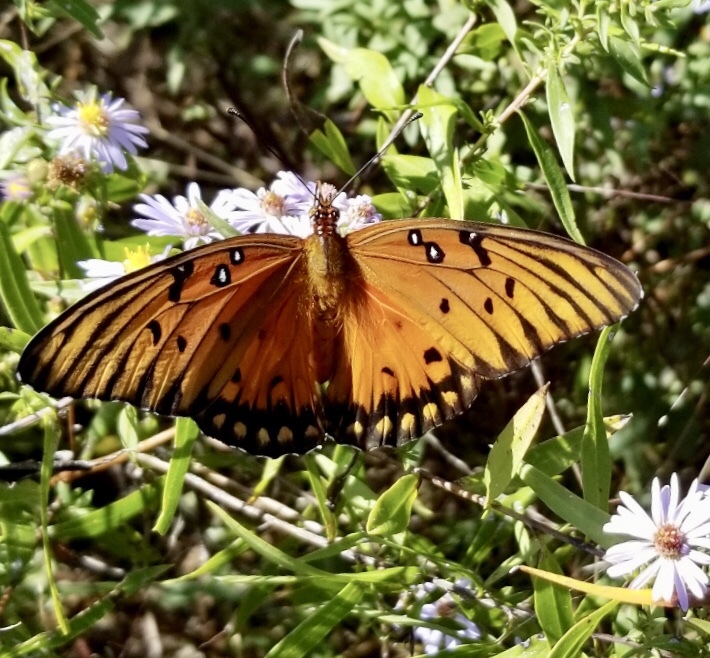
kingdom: Animalia
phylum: Arthropoda
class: Insecta
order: Lepidoptera
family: Nymphalidae
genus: Dione
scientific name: Dione vanillae
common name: Gulf fritillary
